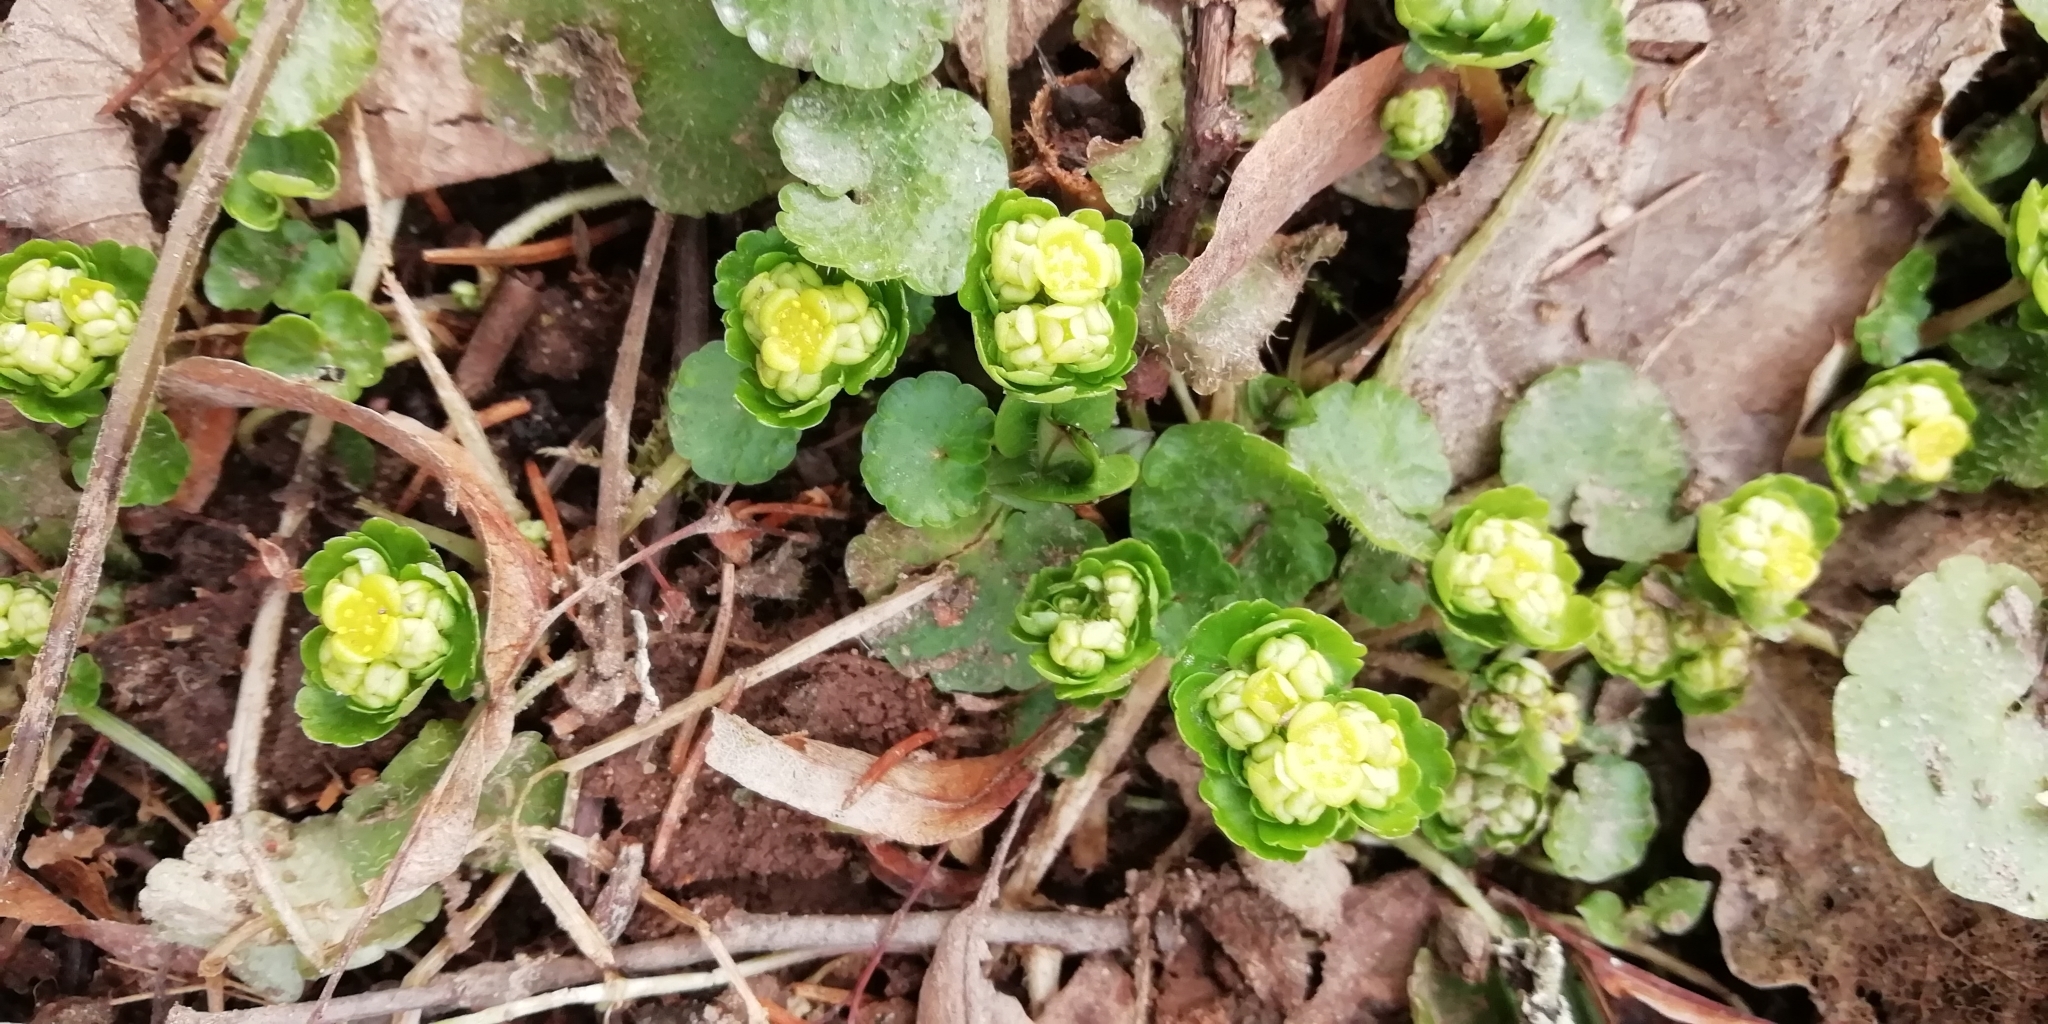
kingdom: Plantae
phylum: Tracheophyta
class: Magnoliopsida
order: Saxifragales
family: Saxifragaceae
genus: Chrysosplenium
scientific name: Chrysosplenium alternifolium
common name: Alternate-leaved golden-saxifrage
